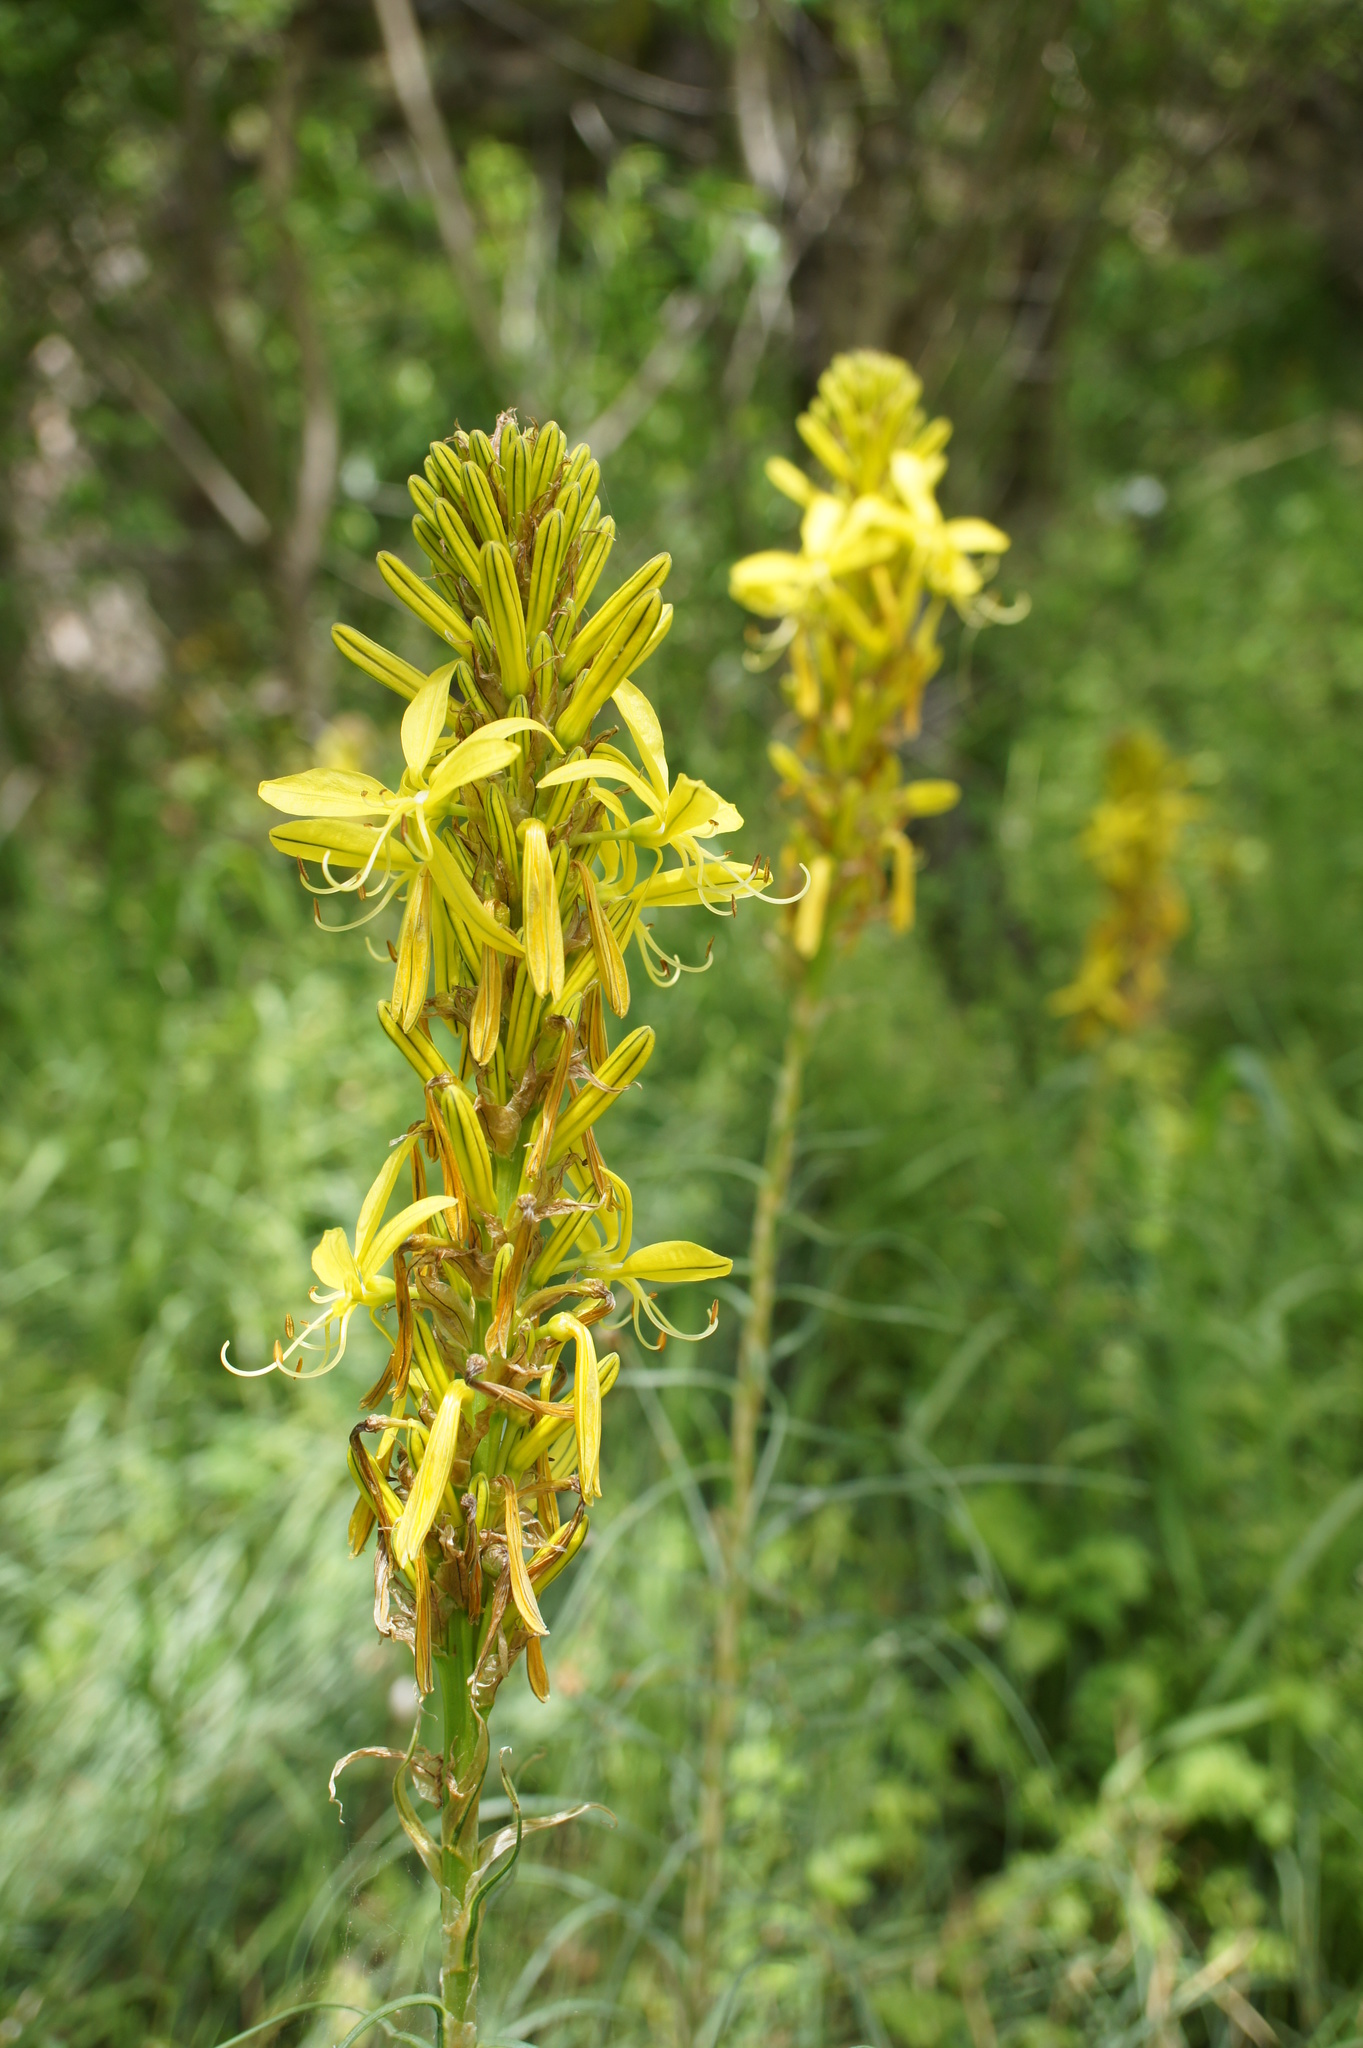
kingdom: Plantae
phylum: Tracheophyta
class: Liliopsida
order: Asparagales
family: Asphodelaceae
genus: Asphodeline
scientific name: Asphodeline lutea
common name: Yellow asphodel
